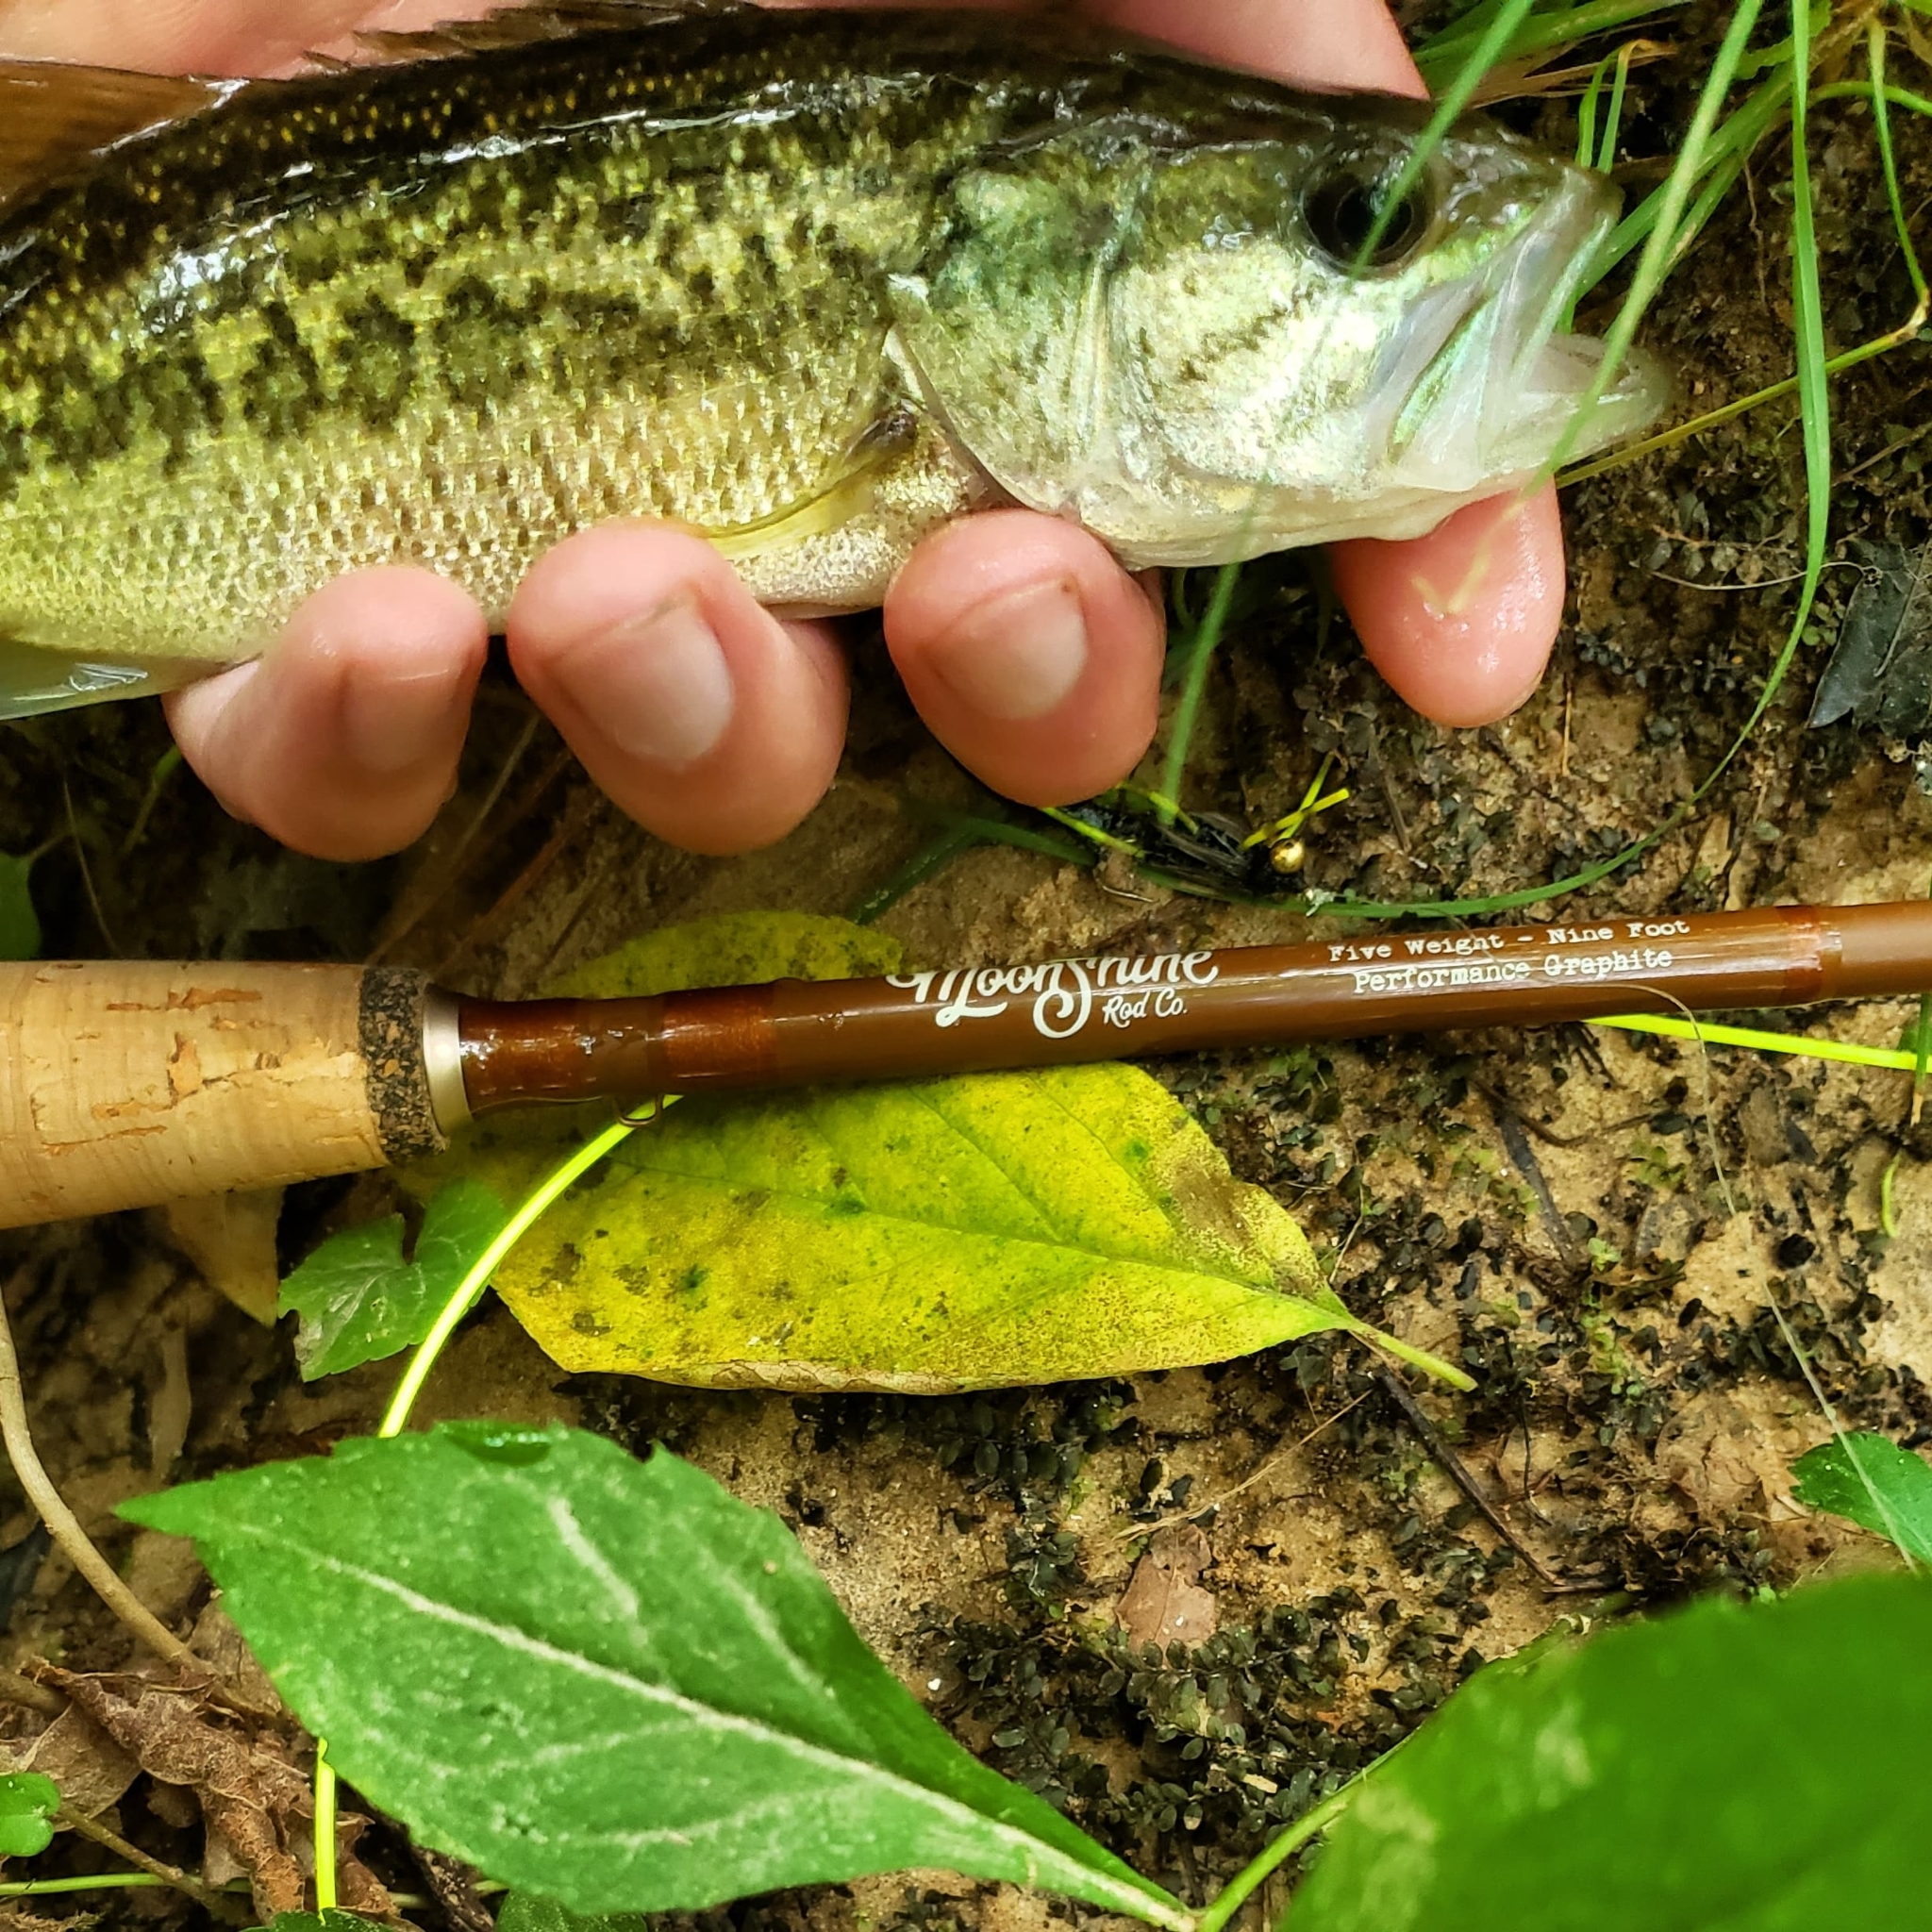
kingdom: Animalia
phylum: Chordata
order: Perciformes
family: Centrarchidae
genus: Micropterus
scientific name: Micropterus
